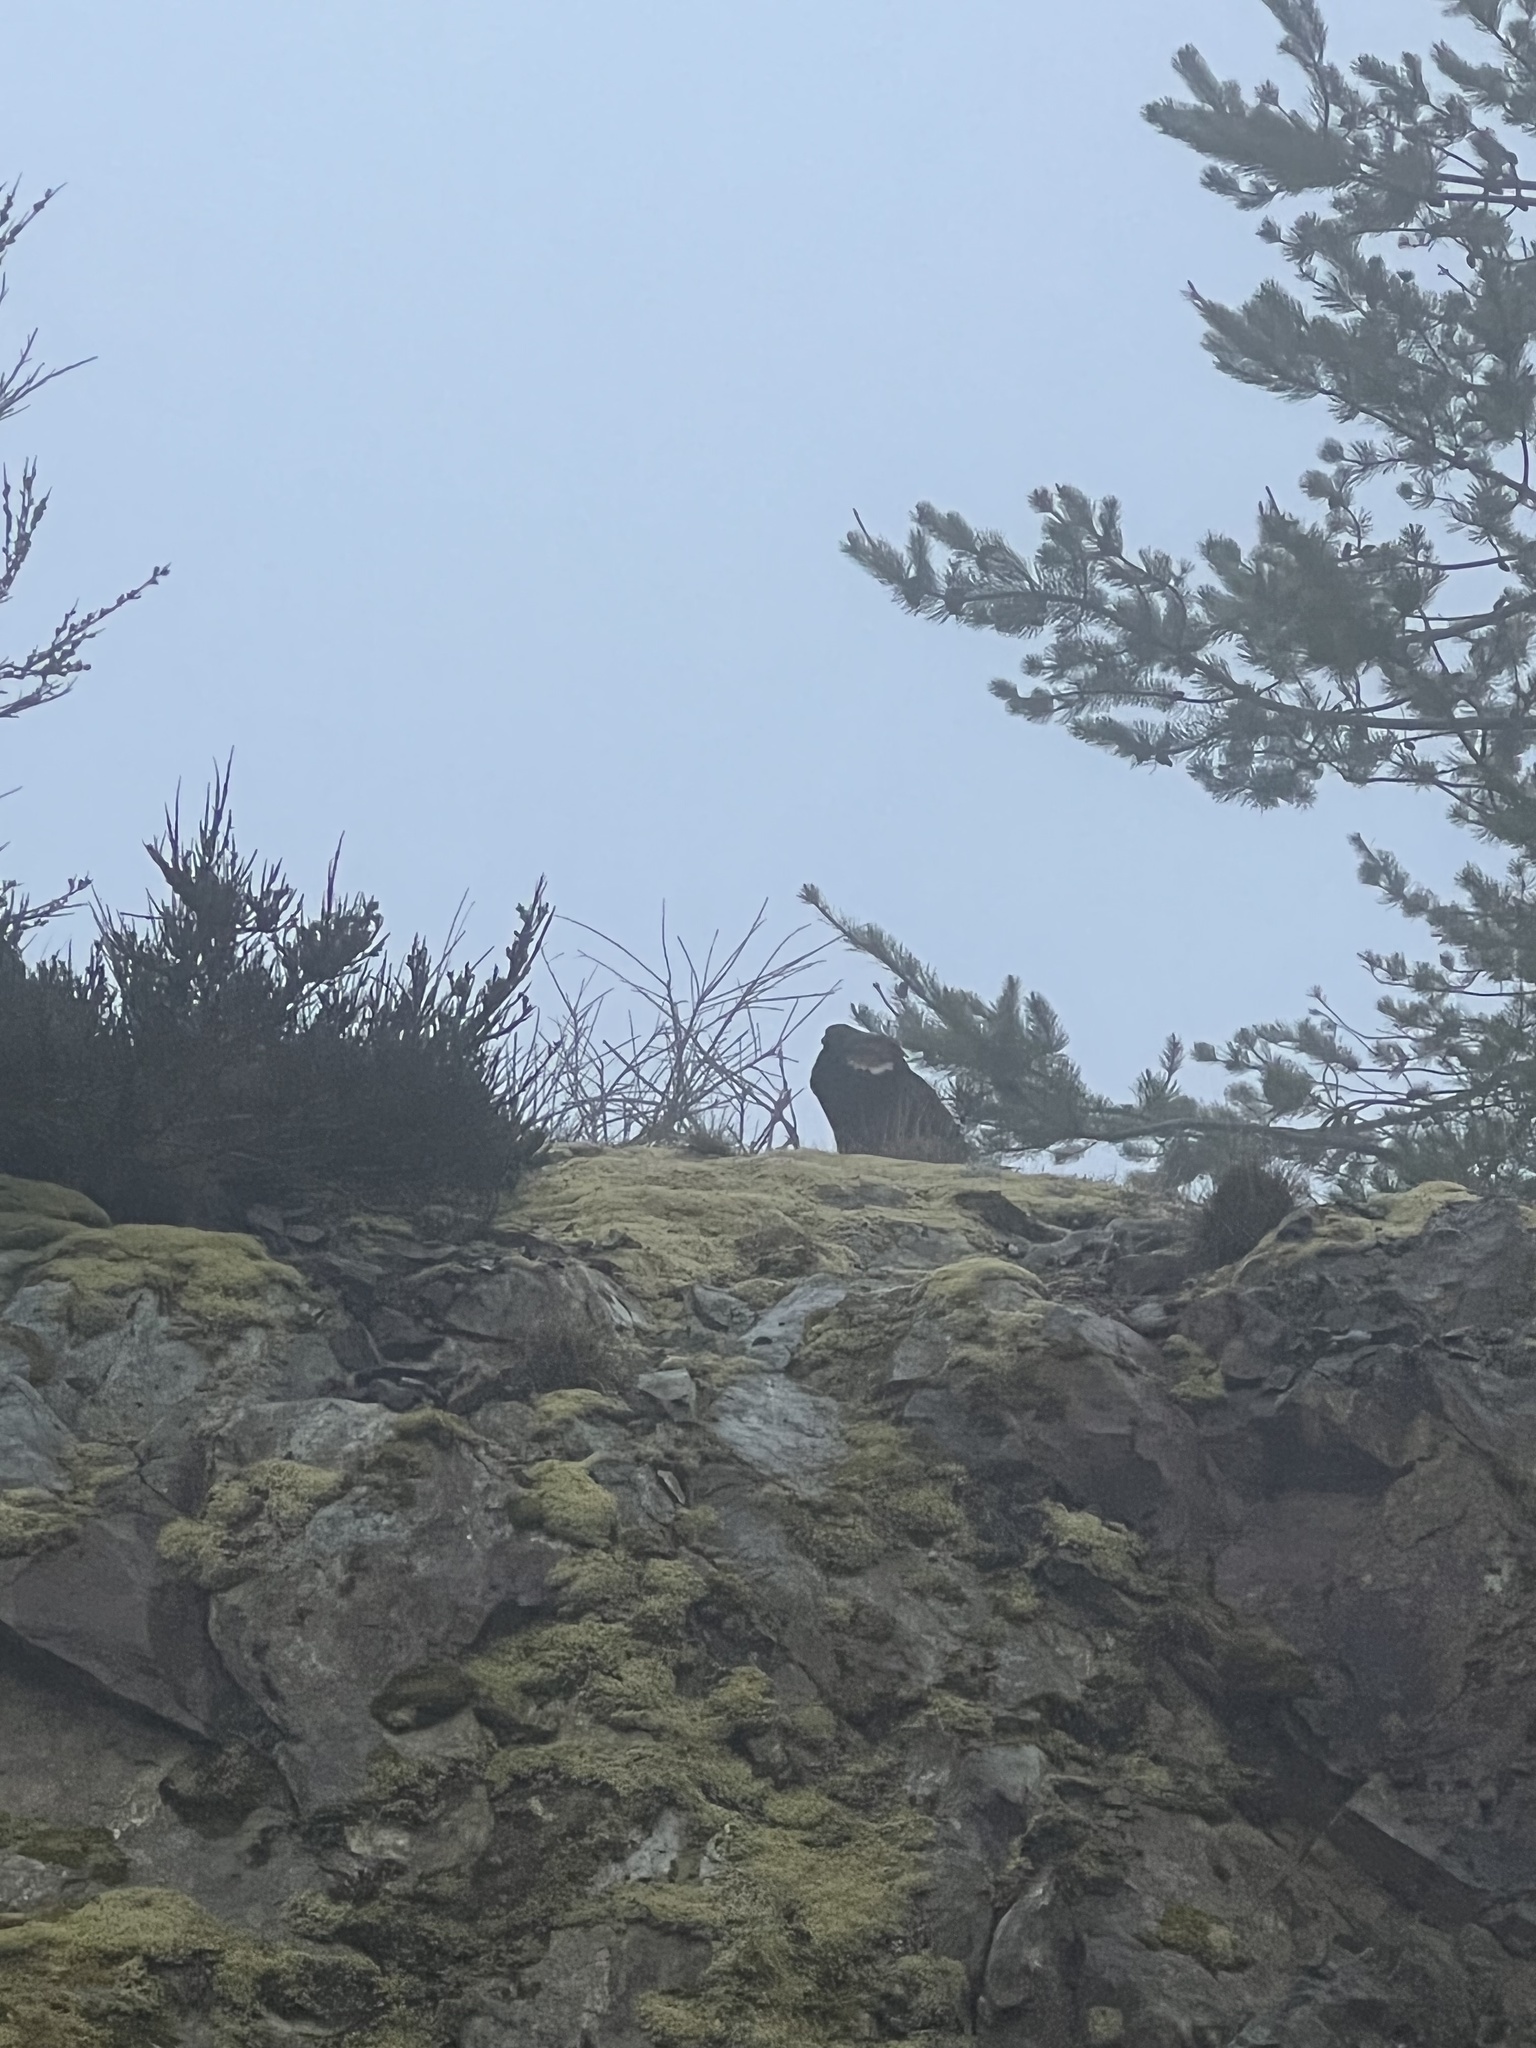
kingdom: Animalia
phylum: Chordata
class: Aves
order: Galliformes
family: Phasianidae
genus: Dendragapus
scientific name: Dendragapus fuliginosus
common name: Sooty grouse
